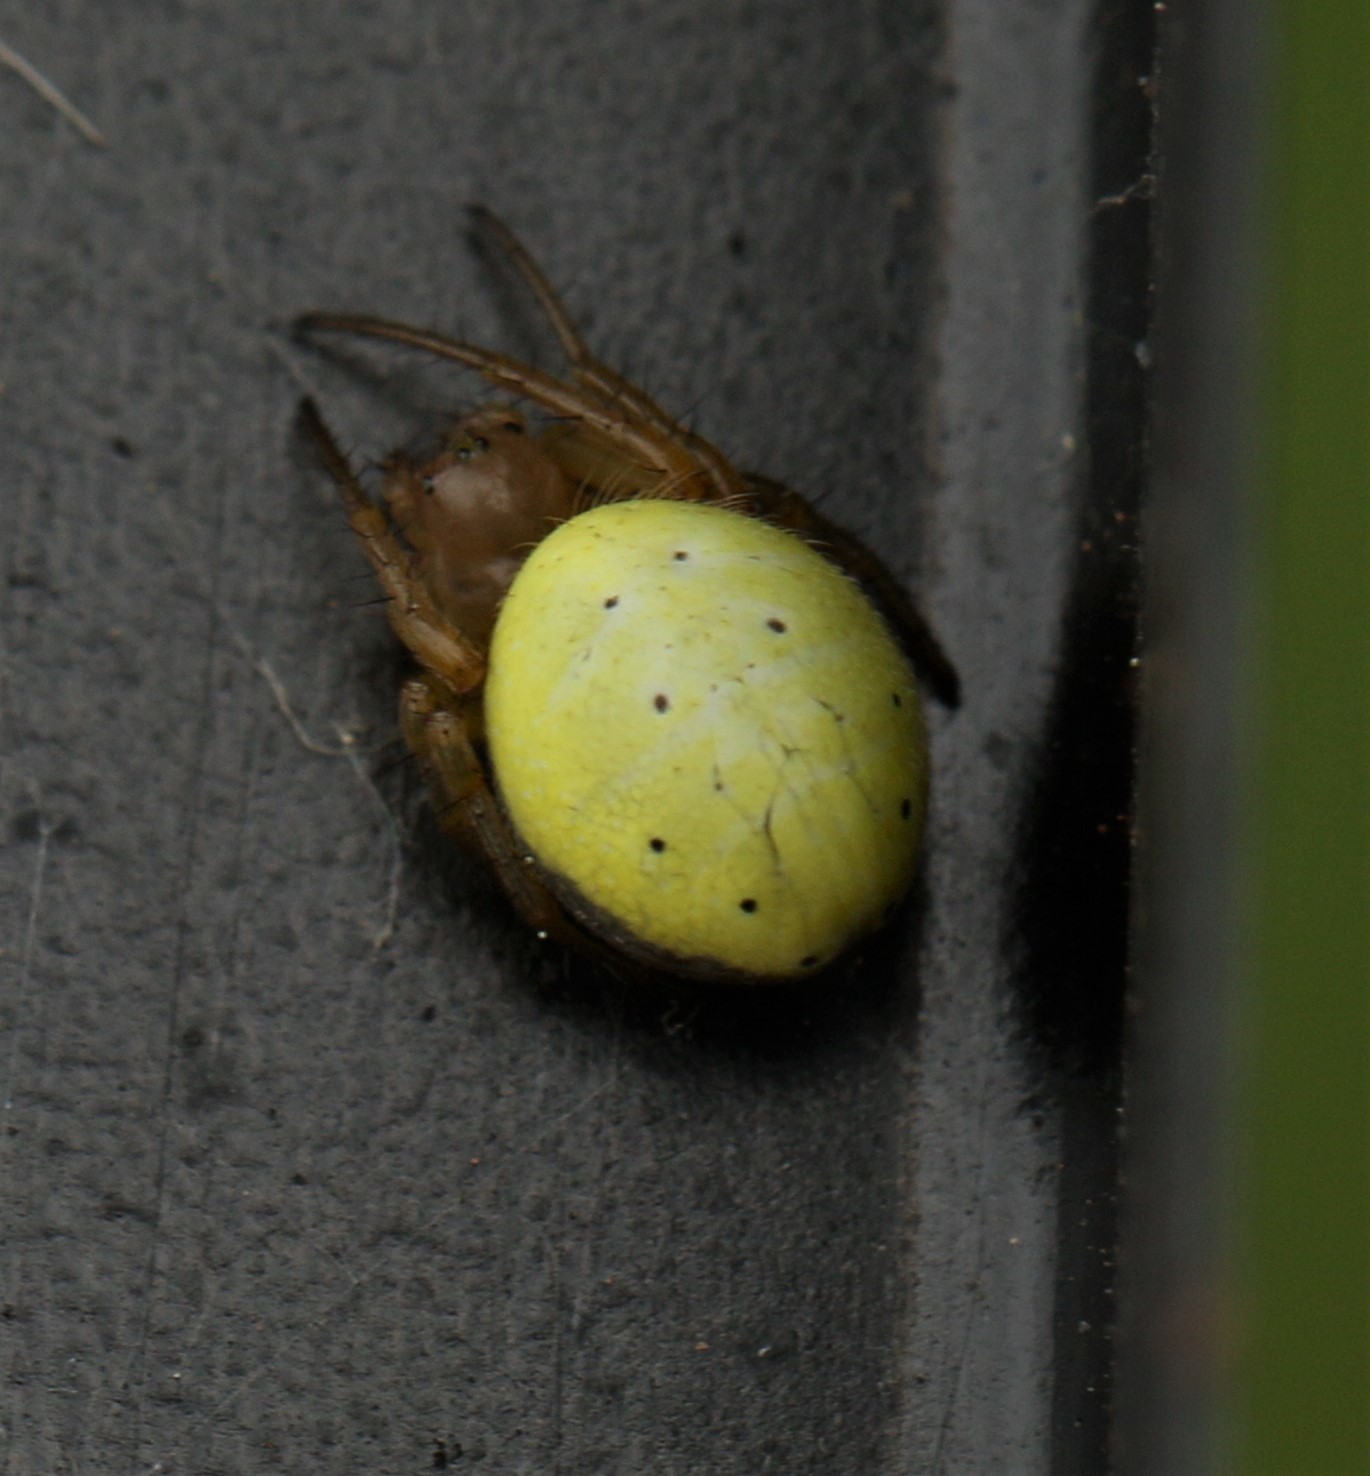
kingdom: Animalia
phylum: Arthropoda
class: Arachnida
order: Araneae
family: Araneidae
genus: Araniella
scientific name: Araniella displicata
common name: Sixspotted orb weaver
